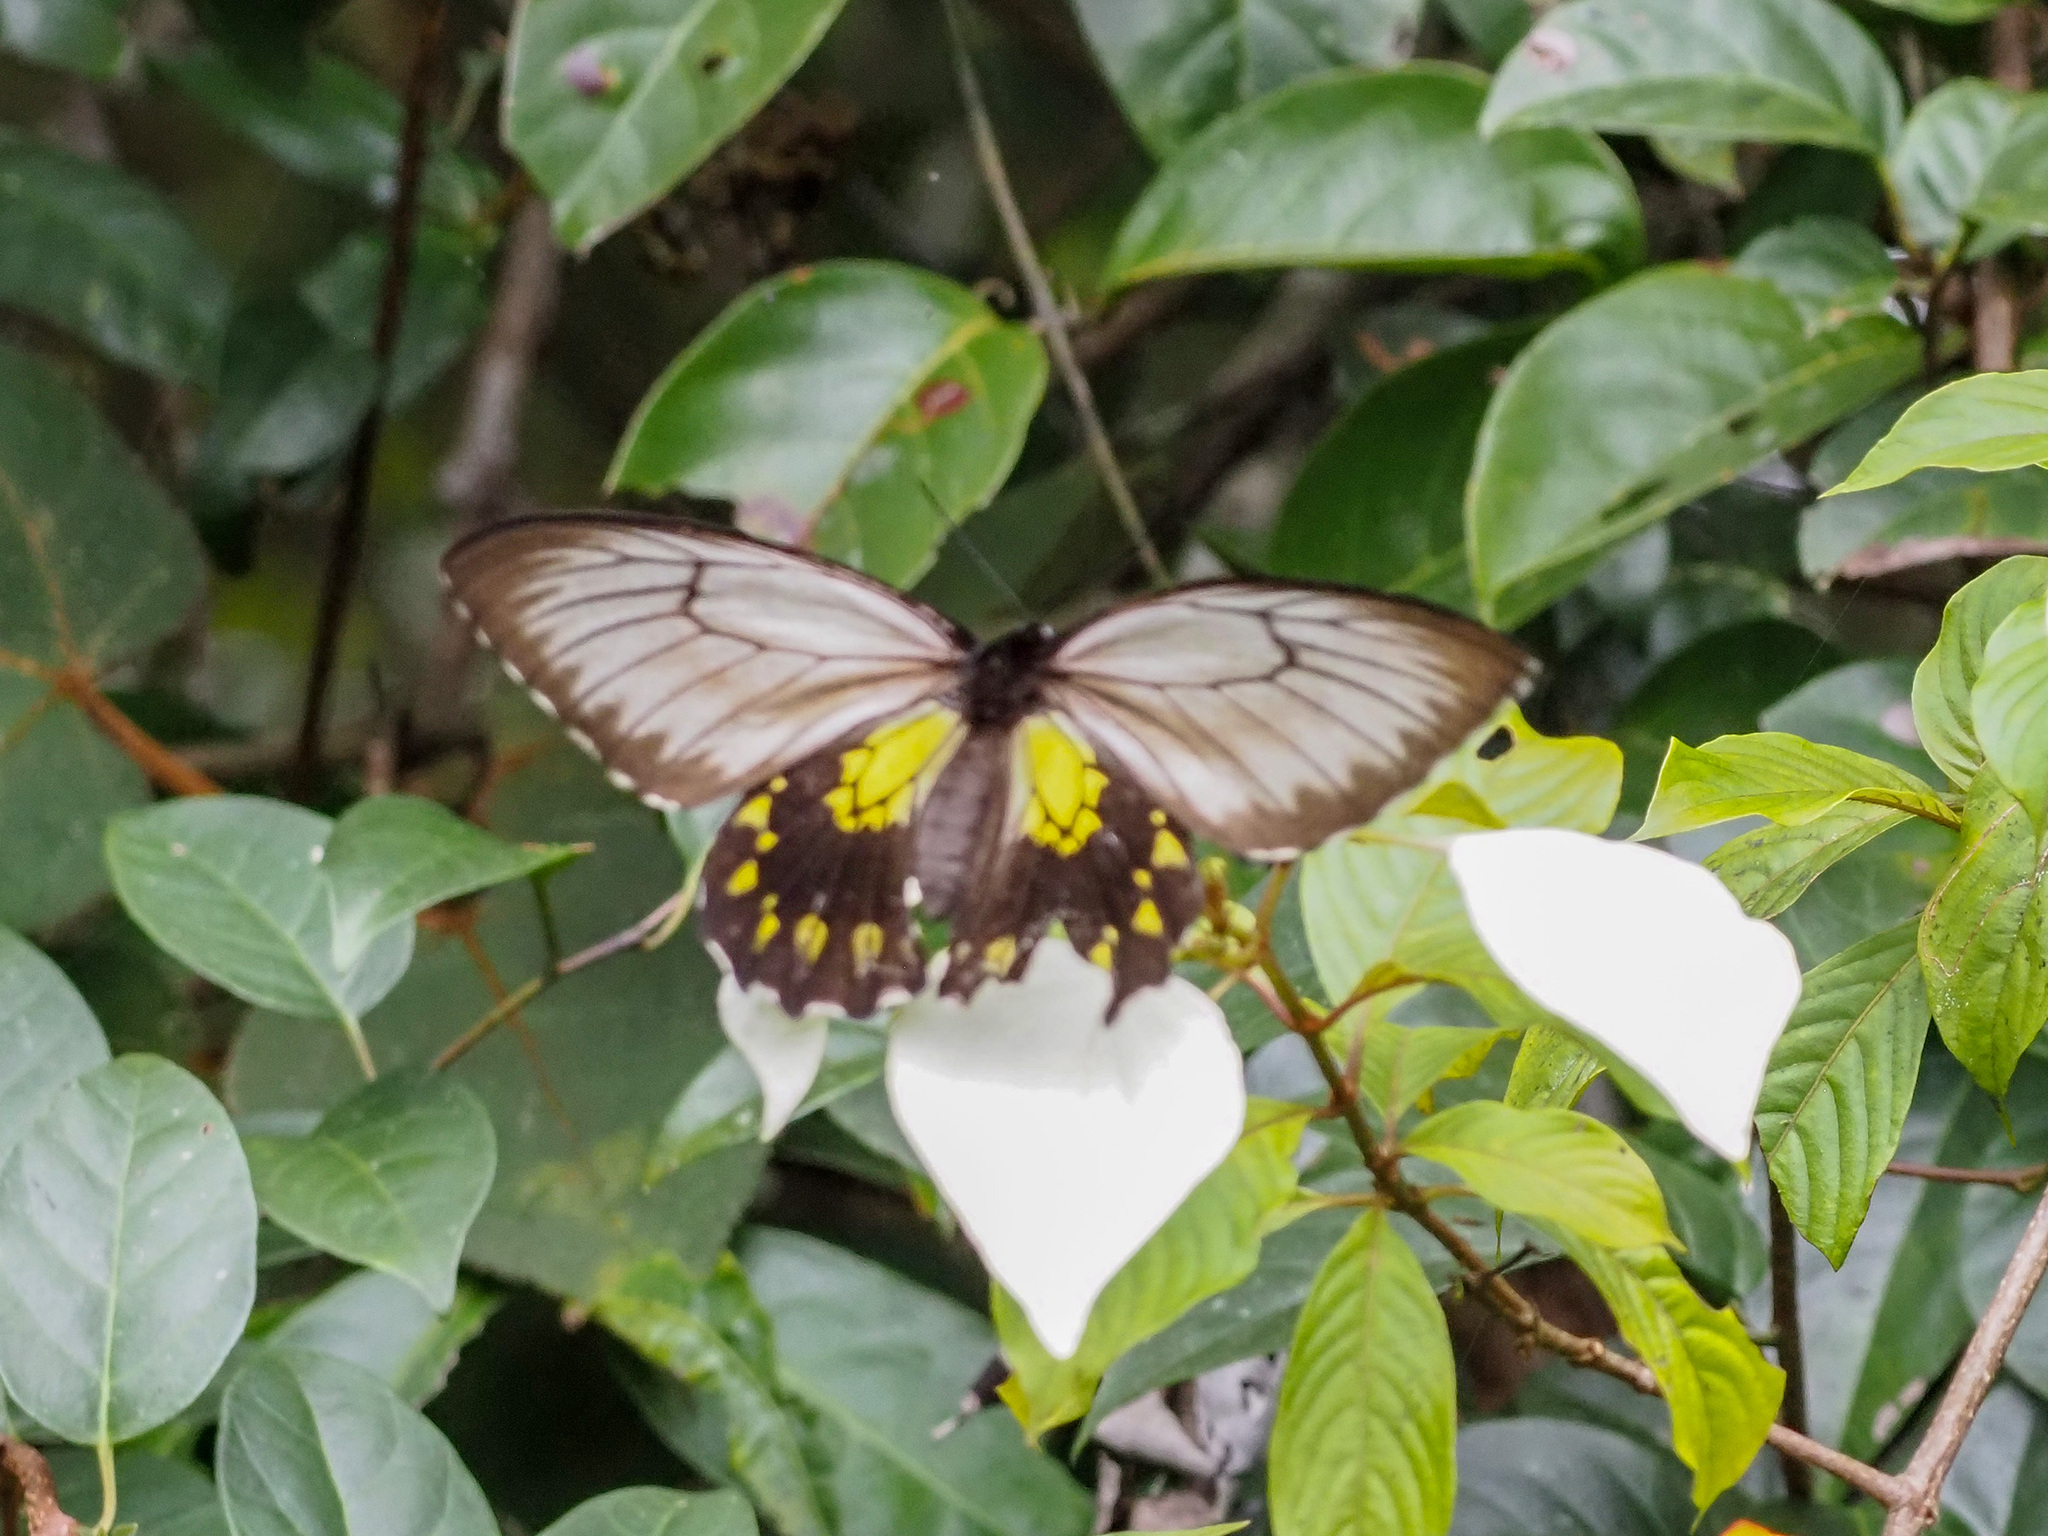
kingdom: Animalia
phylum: Arthropoda
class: Insecta
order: Lepidoptera
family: Papilionidae
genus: Troides
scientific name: Troides andromache
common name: Borneo birdwing
